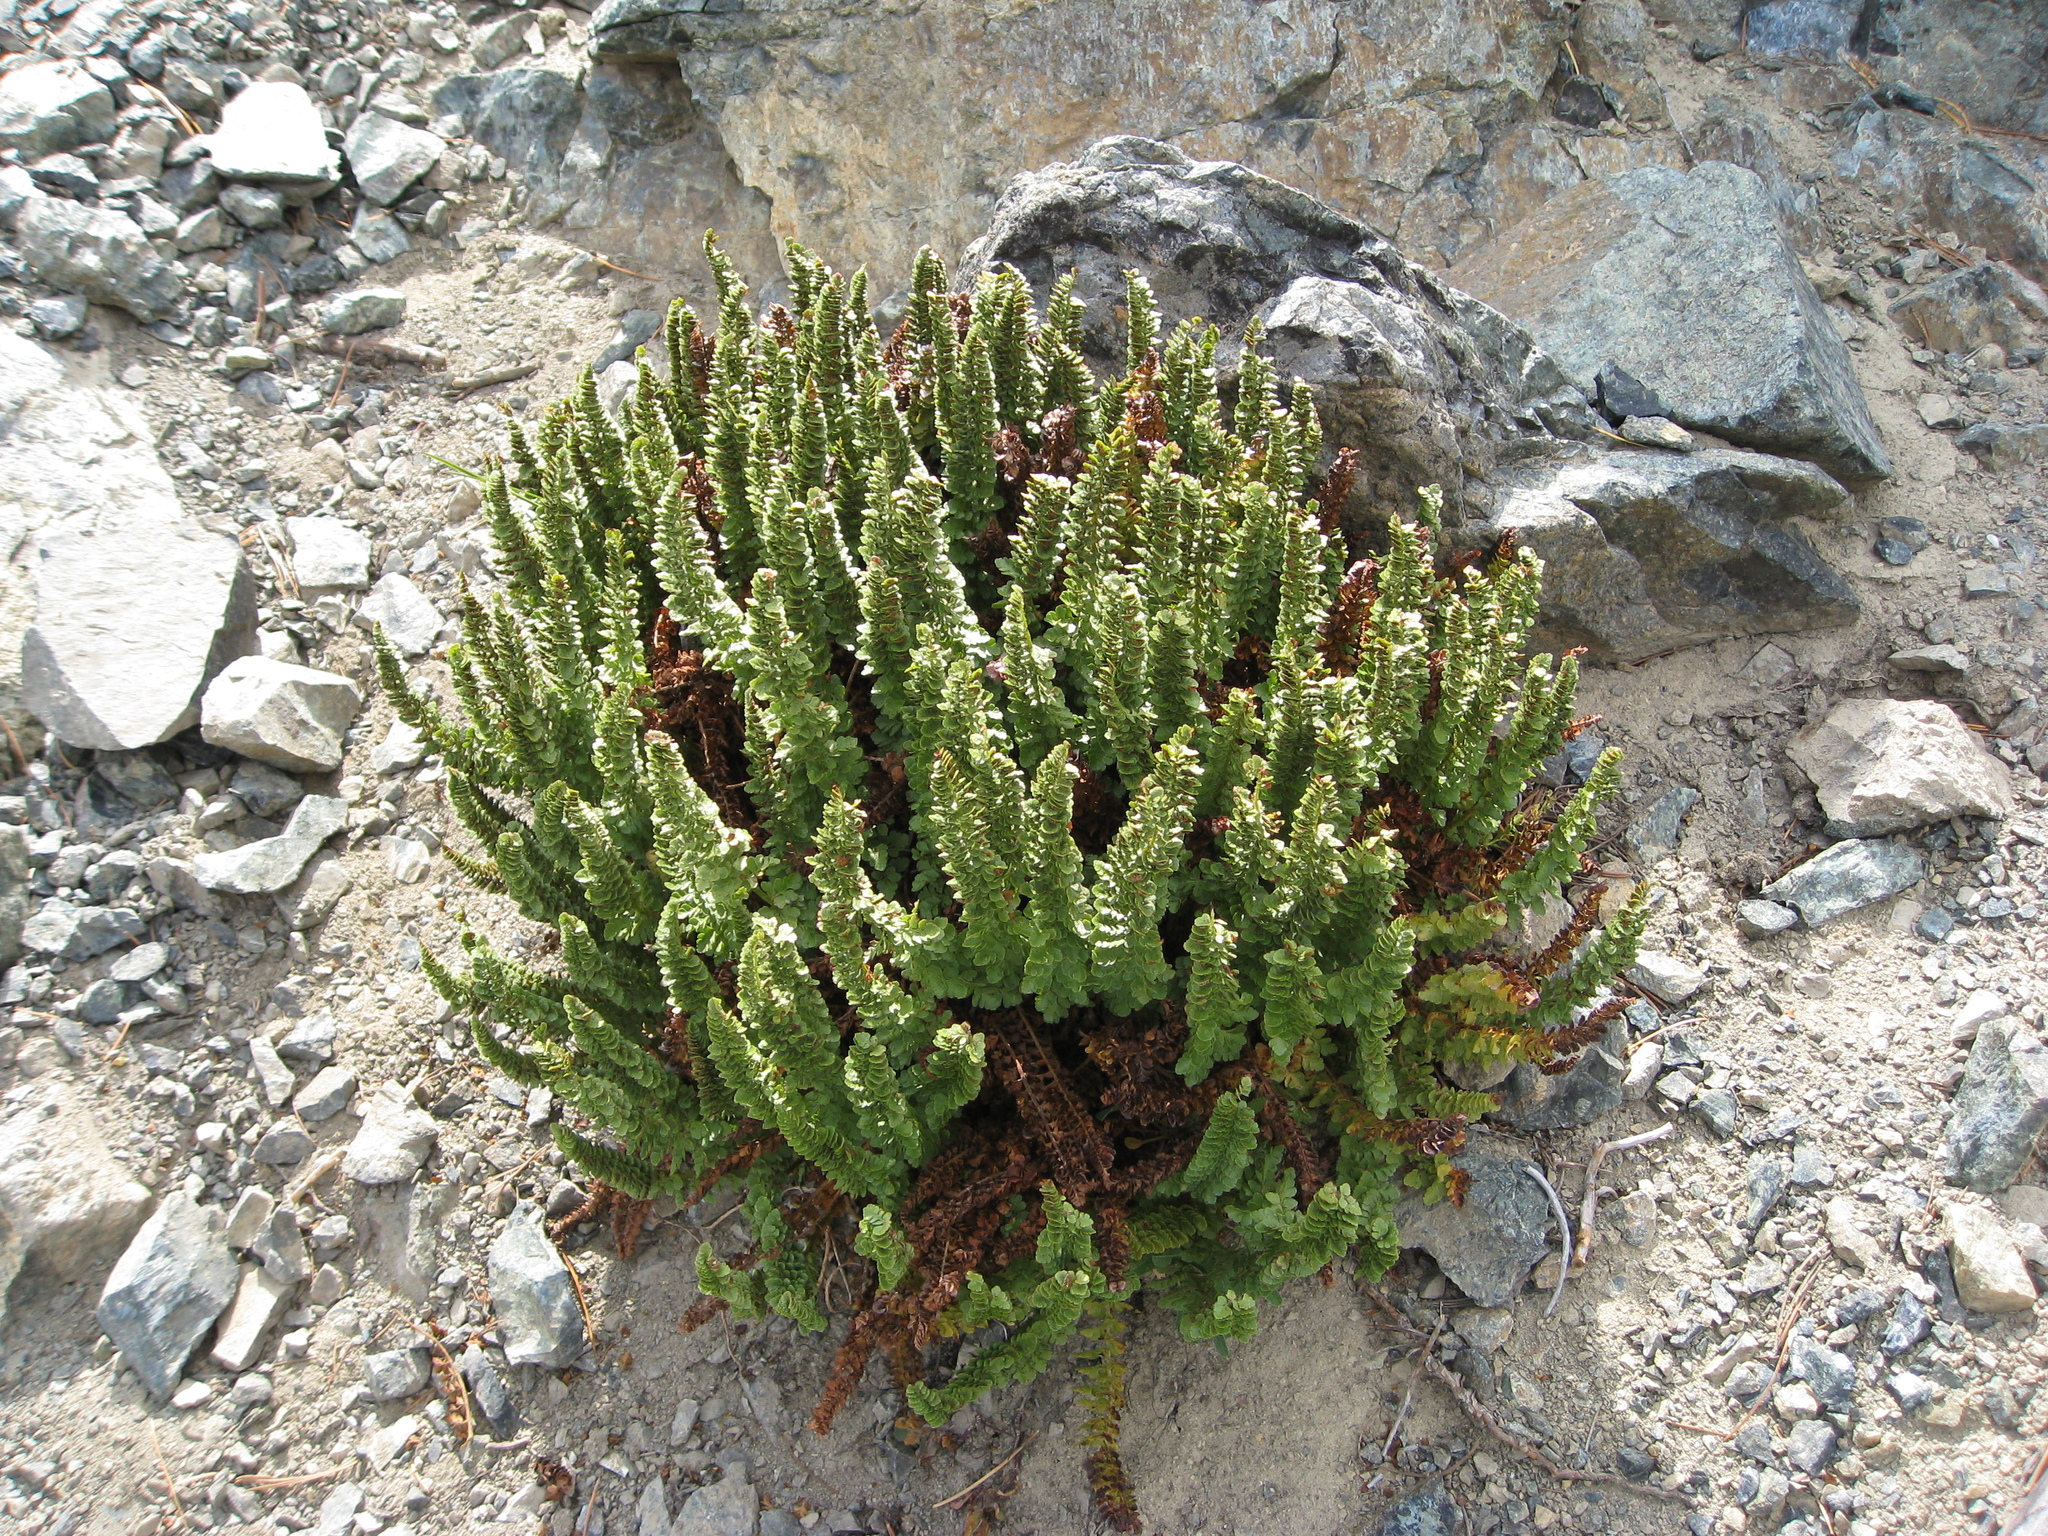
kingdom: Plantae
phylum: Tracheophyta
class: Polypodiopsida
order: Polypodiales
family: Dryopteridaceae
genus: Polystichum
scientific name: Polystichum lemmonii
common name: Lemmon's holly fern
